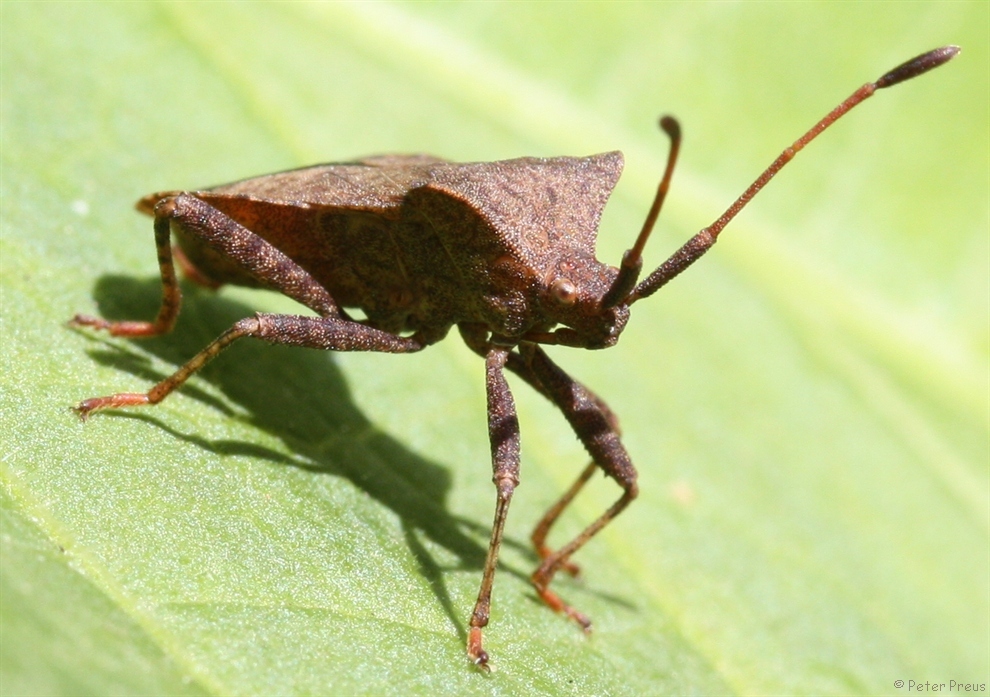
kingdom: Animalia
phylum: Arthropoda
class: Insecta
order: Hemiptera
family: Coreidae
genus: Coreus
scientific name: Coreus marginatus
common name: Dock bug
